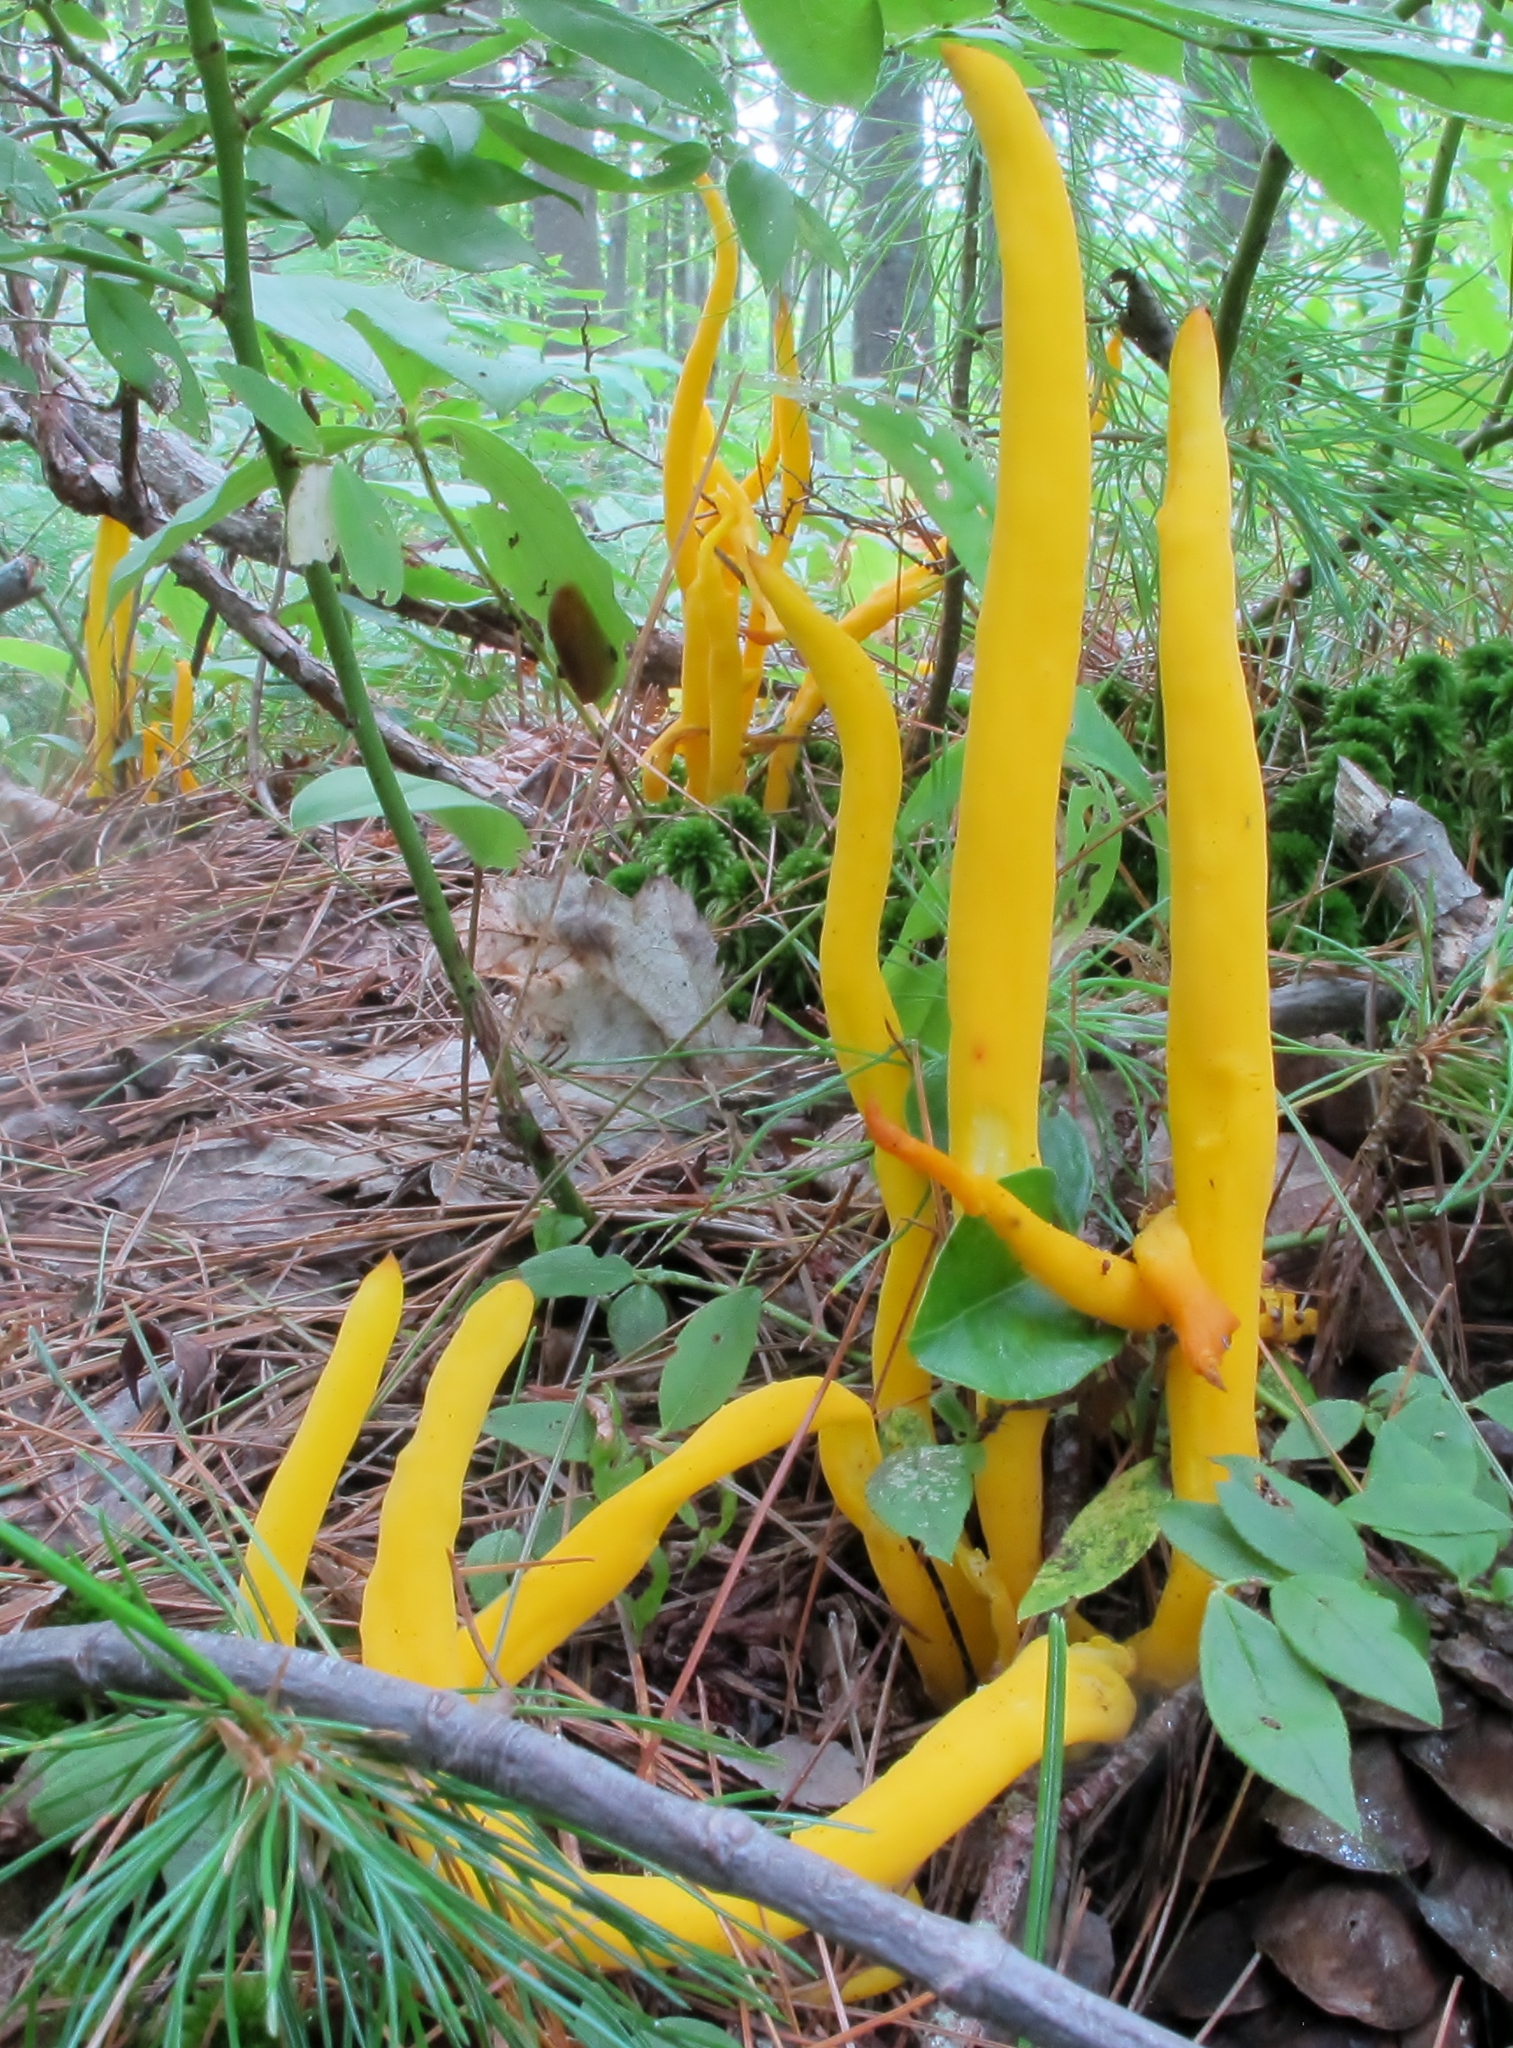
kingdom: Fungi
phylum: Basidiomycota
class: Agaricomycetes
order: Agaricales
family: Clavariaceae
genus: Clavulinopsis
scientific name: Clavulinopsis fusiformis
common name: Golden spindles
